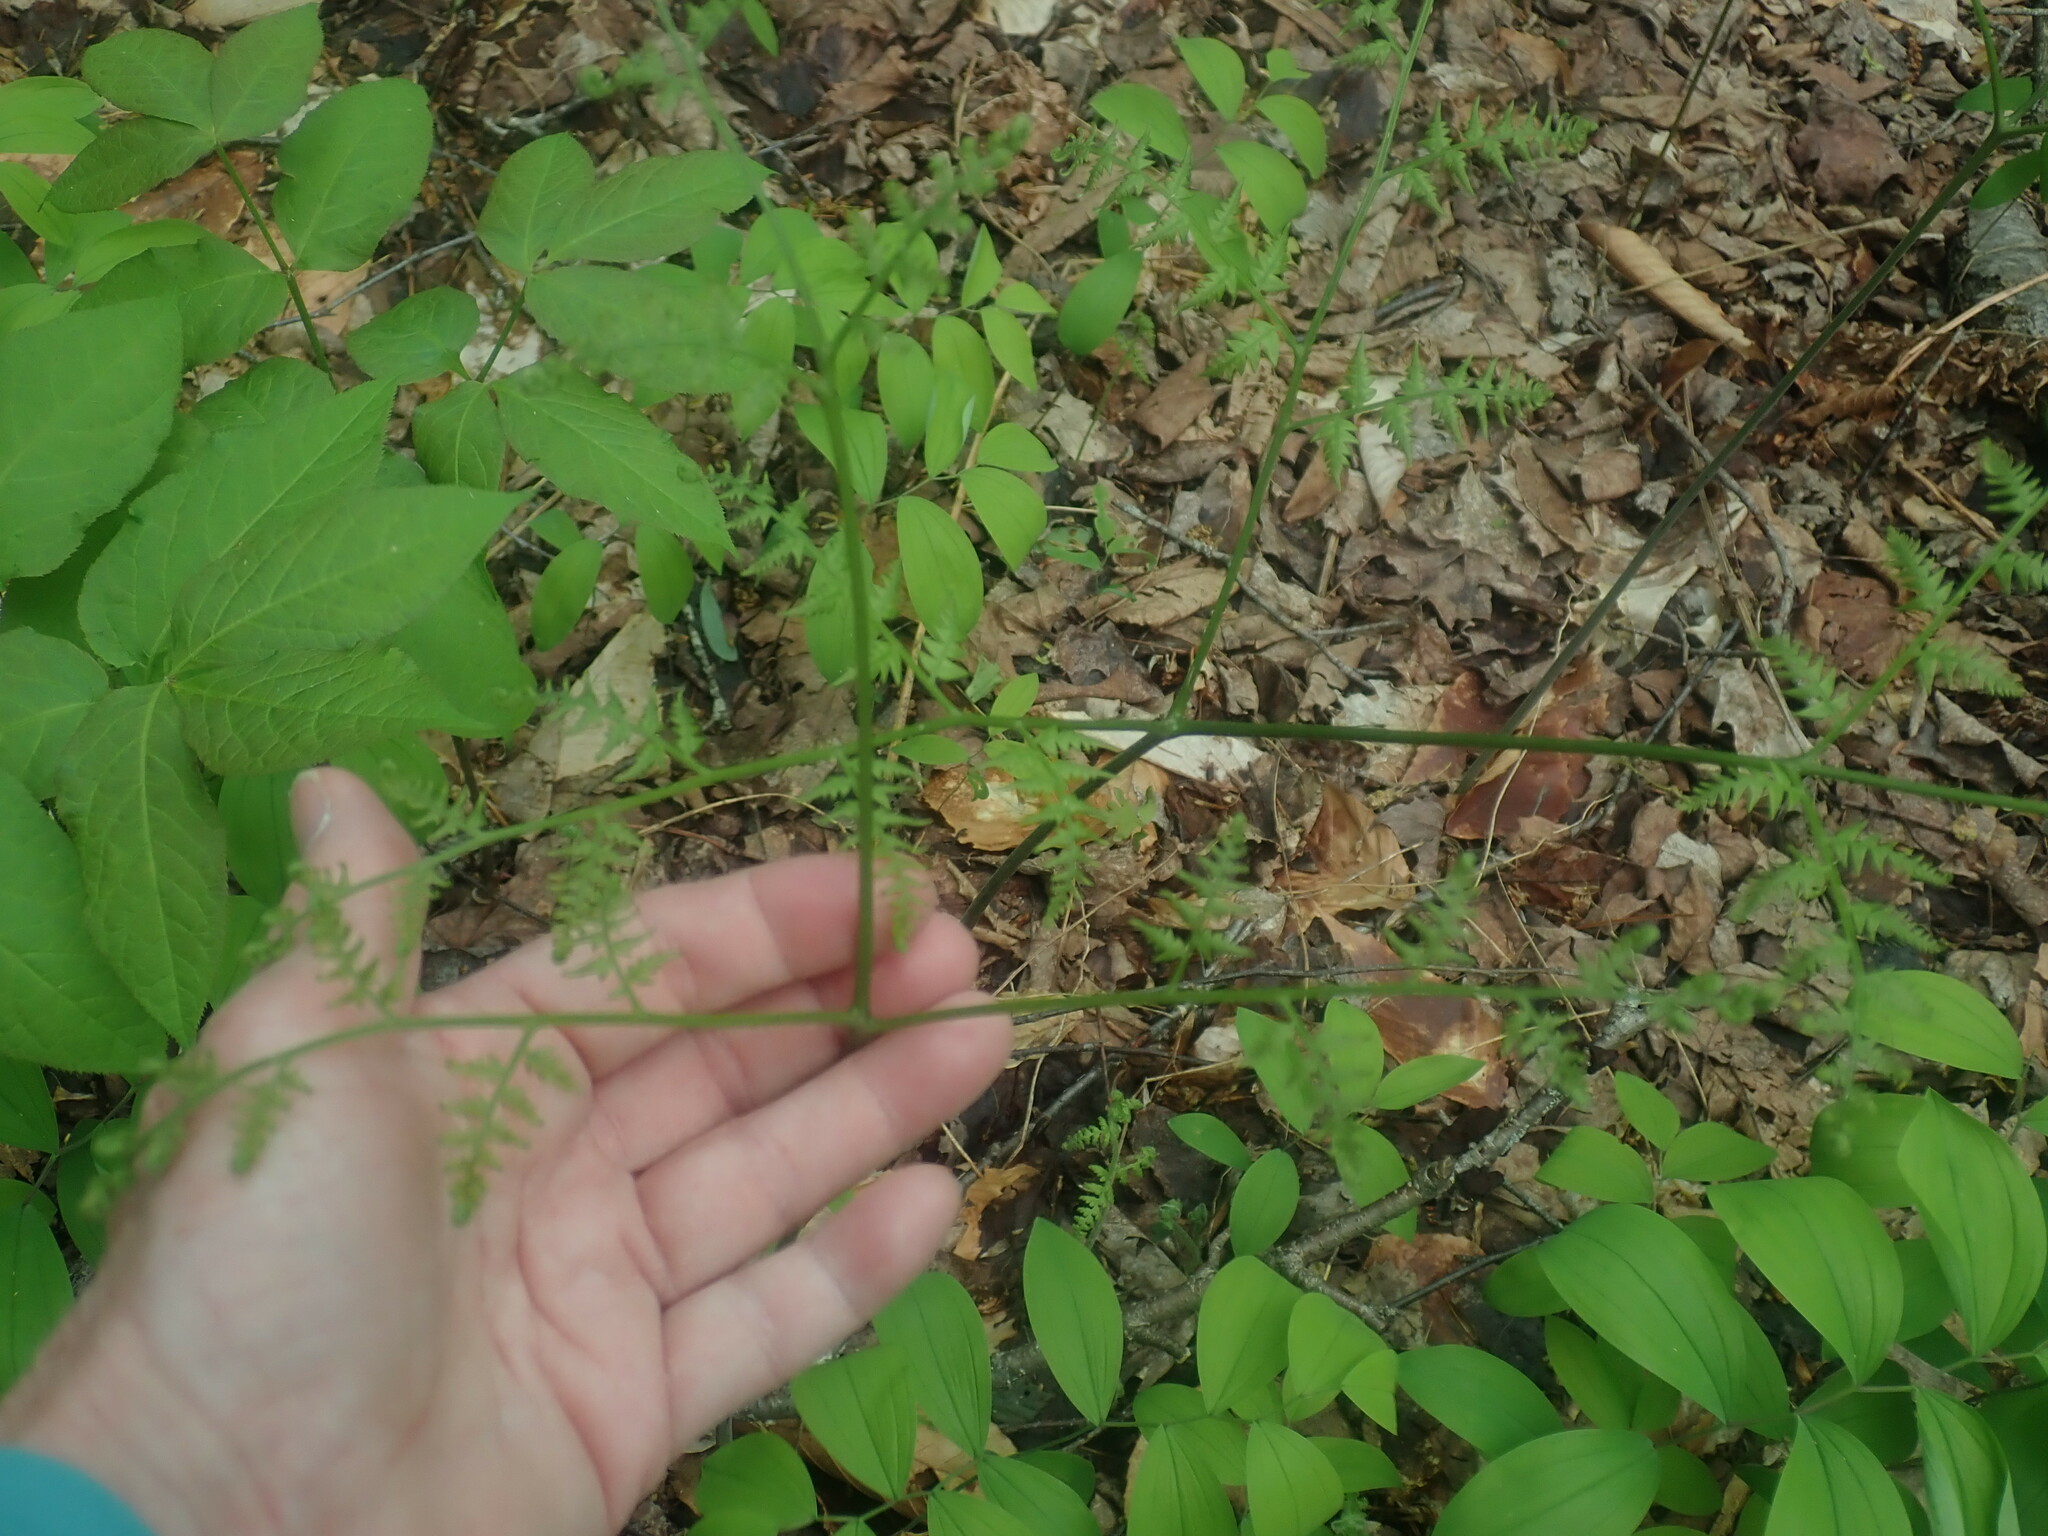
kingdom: Plantae
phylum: Tracheophyta
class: Polypodiopsida
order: Polypodiales
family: Dennstaedtiaceae
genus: Pteridium
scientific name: Pteridium aquilinum
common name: Bracken
